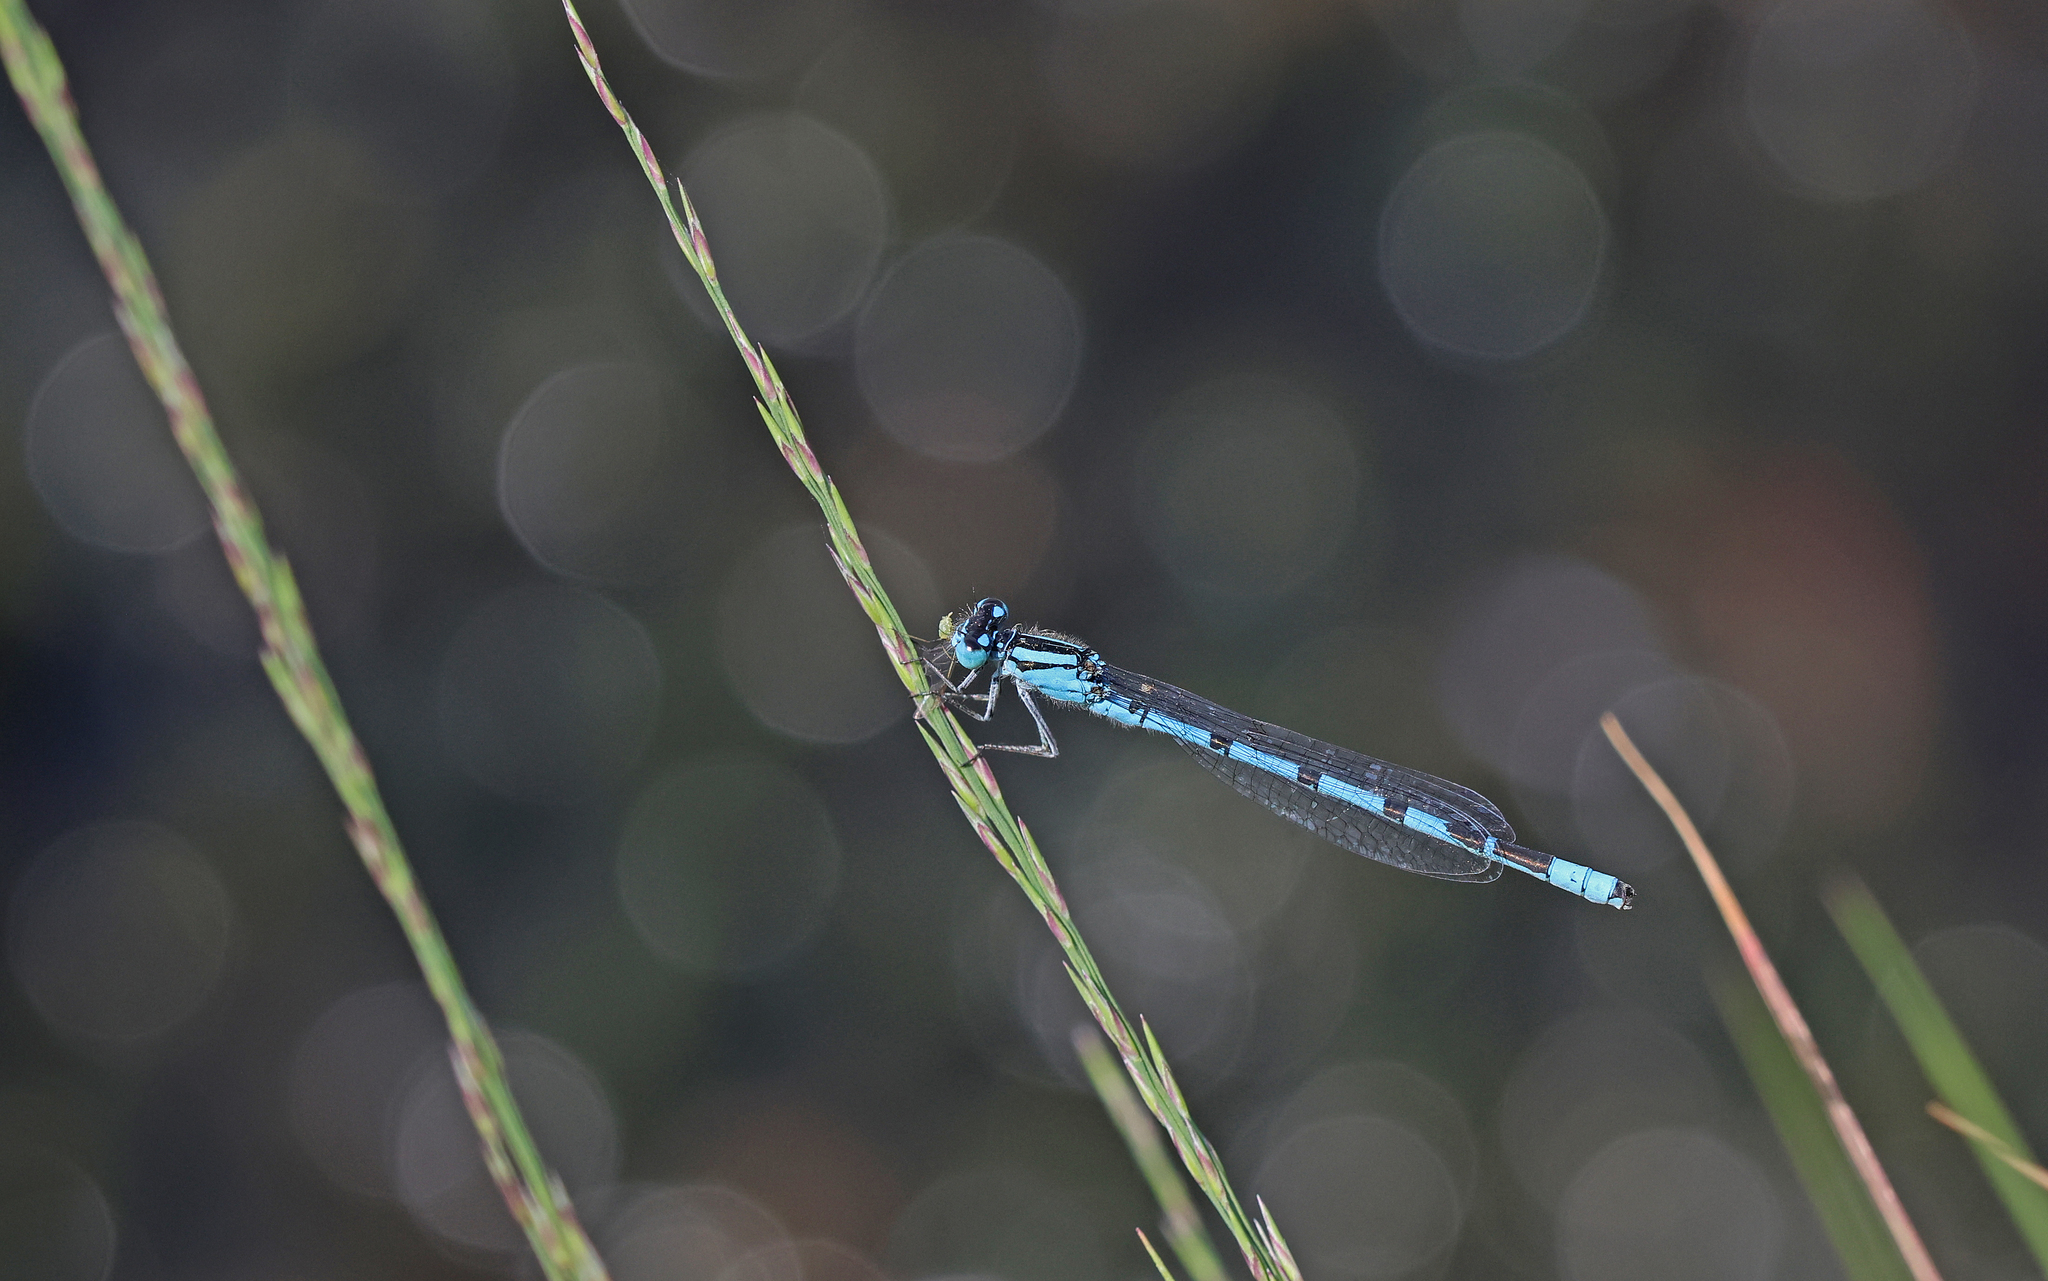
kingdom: Animalia
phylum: Arthropoda
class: Insecta
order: Odonata
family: Coenagrionidae
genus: Enallagma
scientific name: Enallagma cyathigerum
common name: Common blue damselfly
